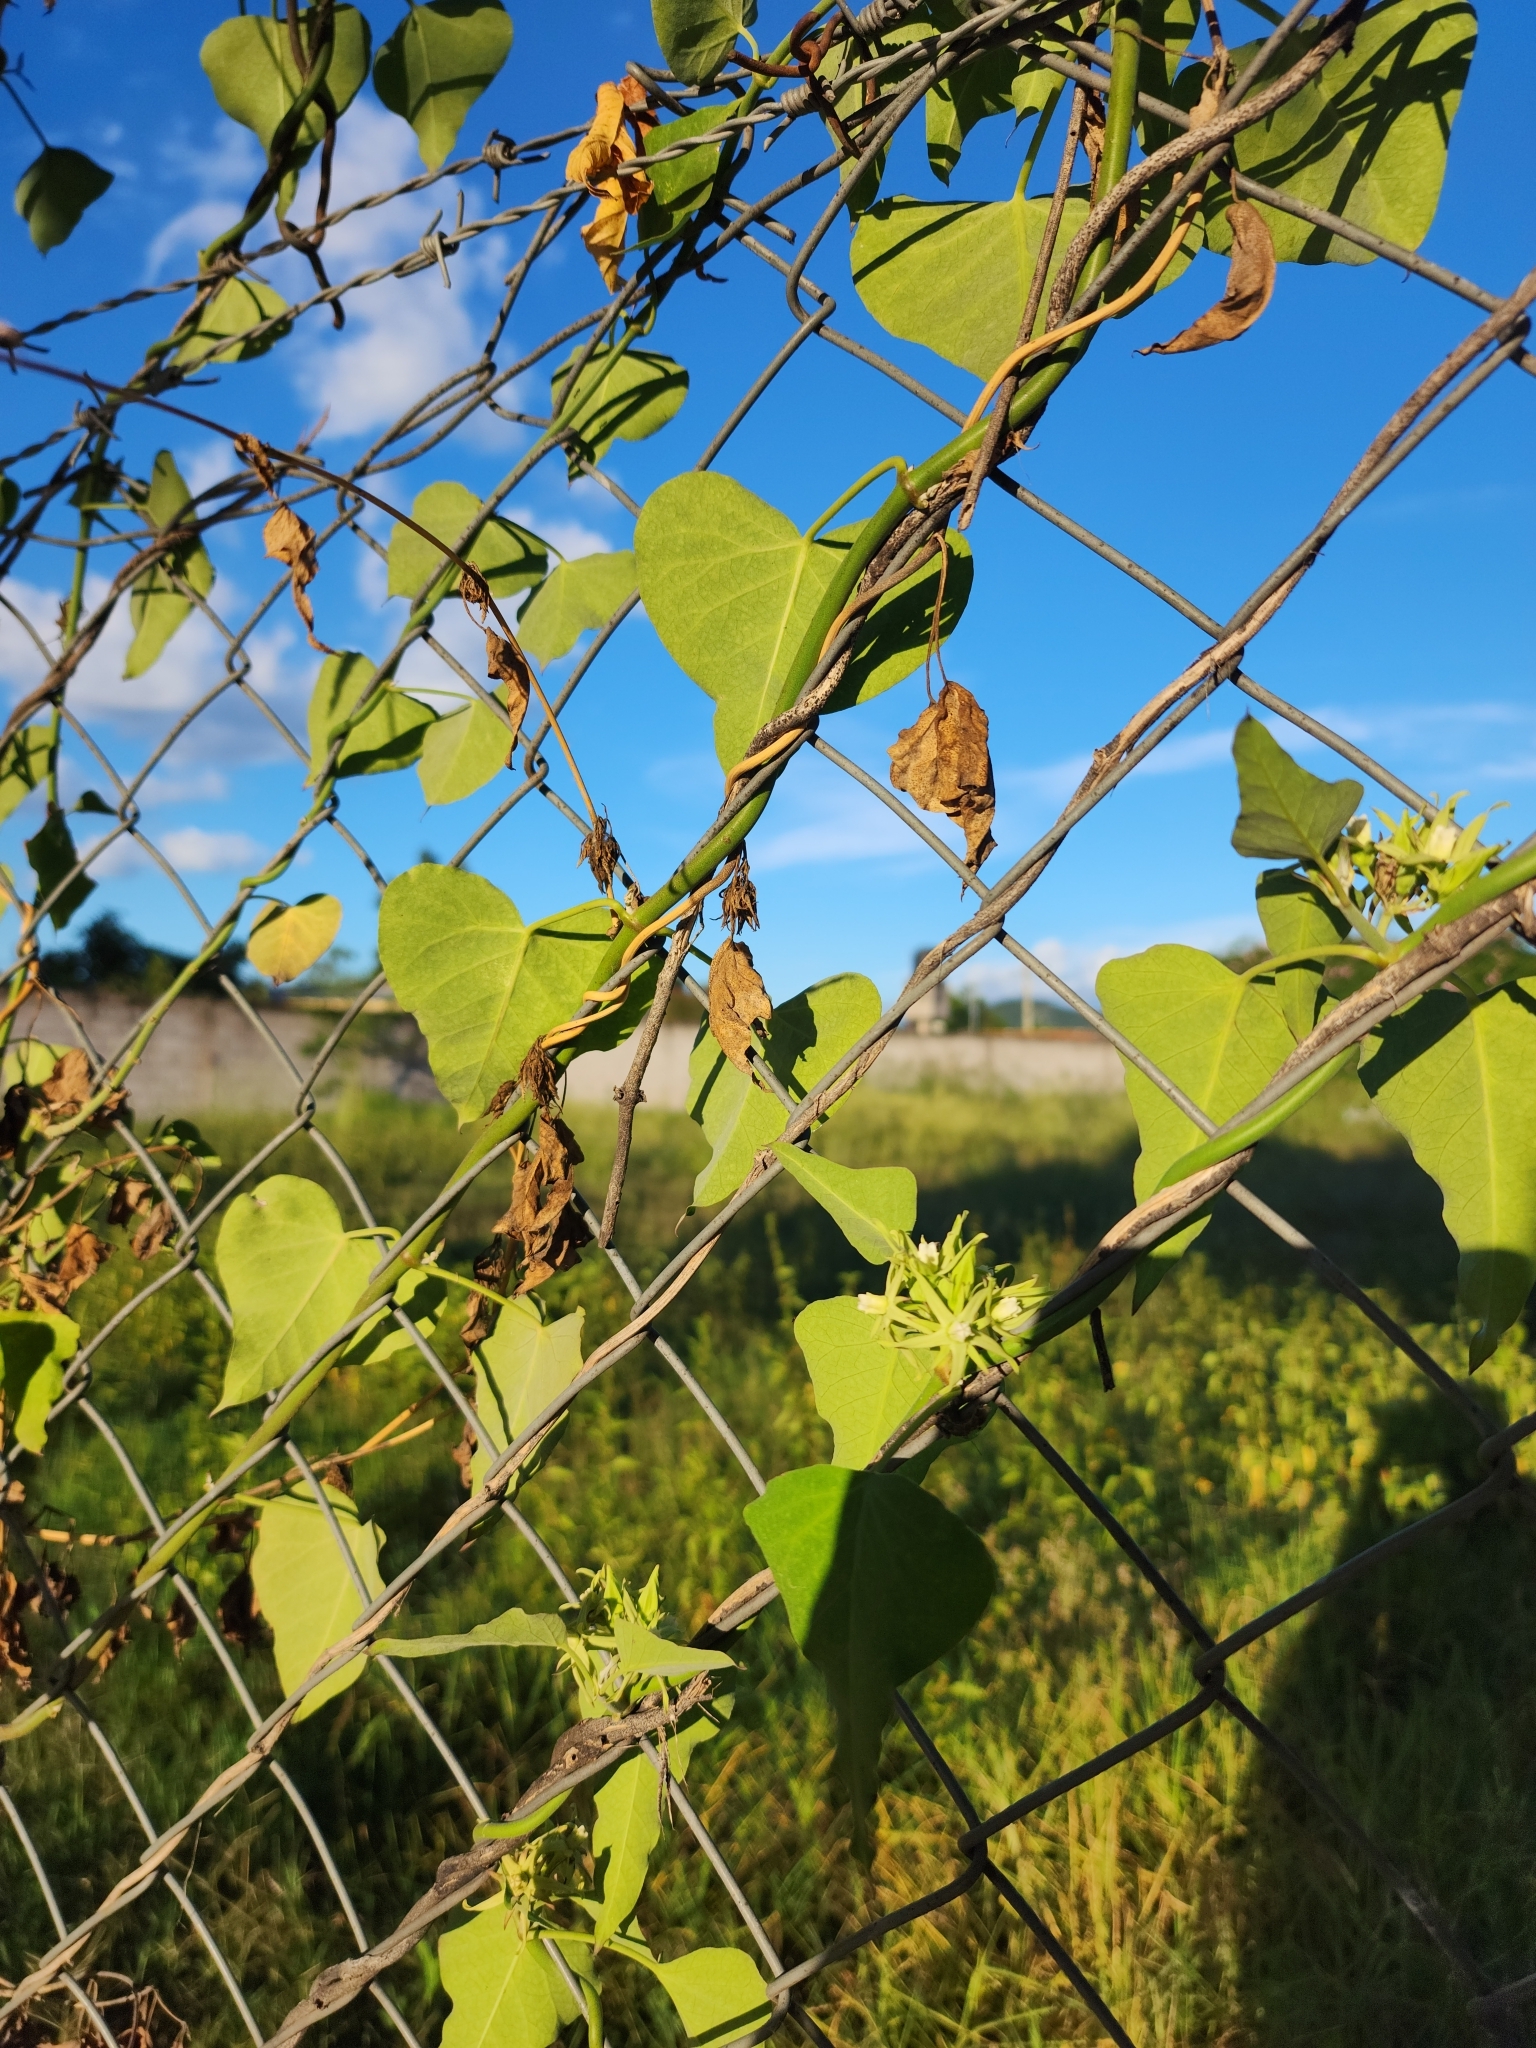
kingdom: Plantae
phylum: Tracheophyta
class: Magnoliopsida
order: Gentianales
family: Apocynaceae
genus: Araujia
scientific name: Araujia odorata
